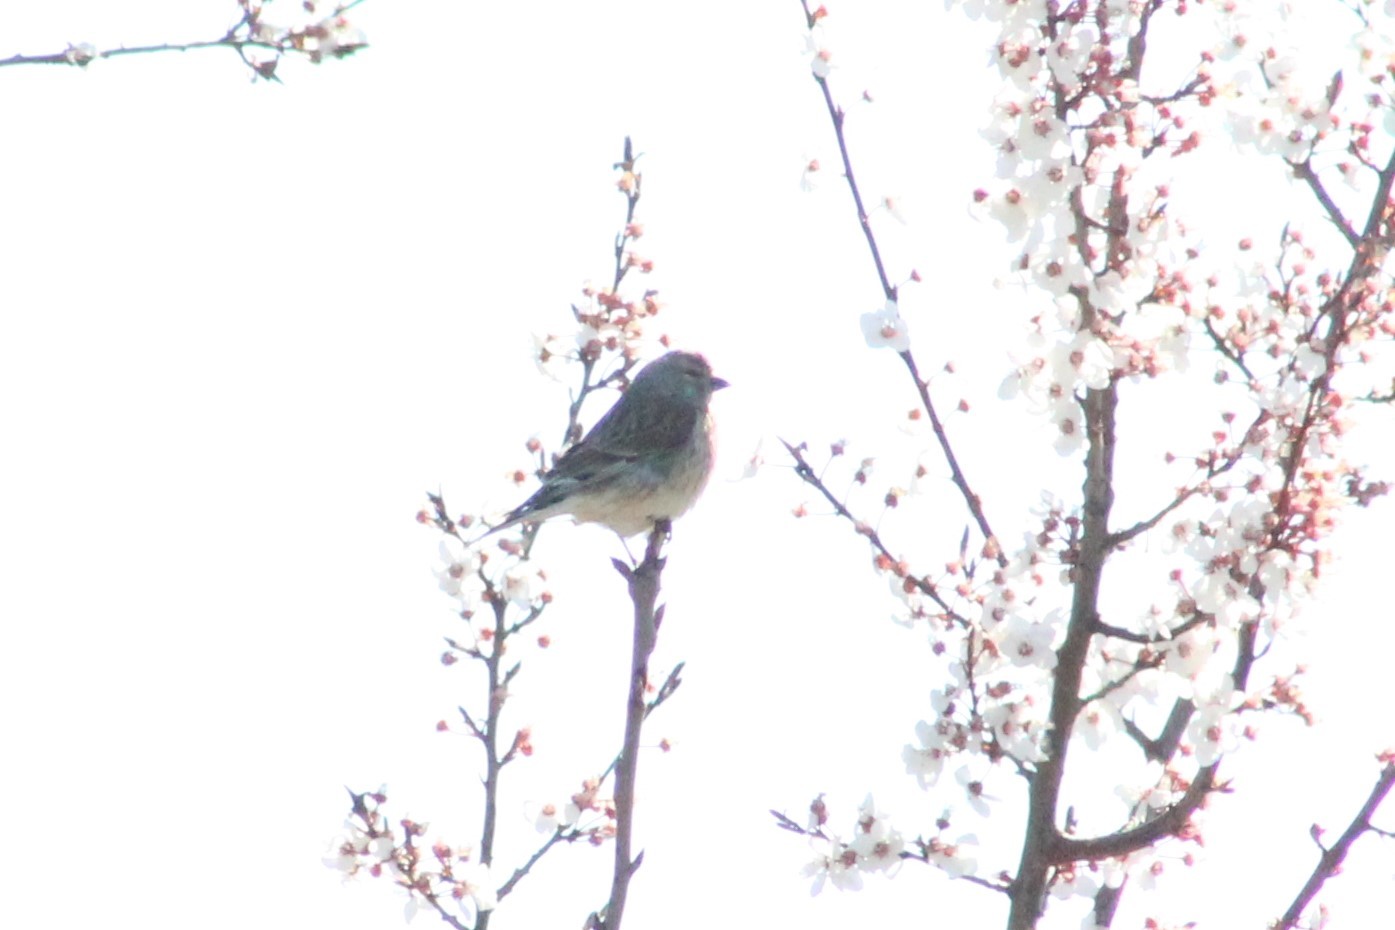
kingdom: Animalia
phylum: Chordata
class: Aves
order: Passeriformes
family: Fringillidae
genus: Linaria
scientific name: Linaria cannabina
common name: Common linnet
